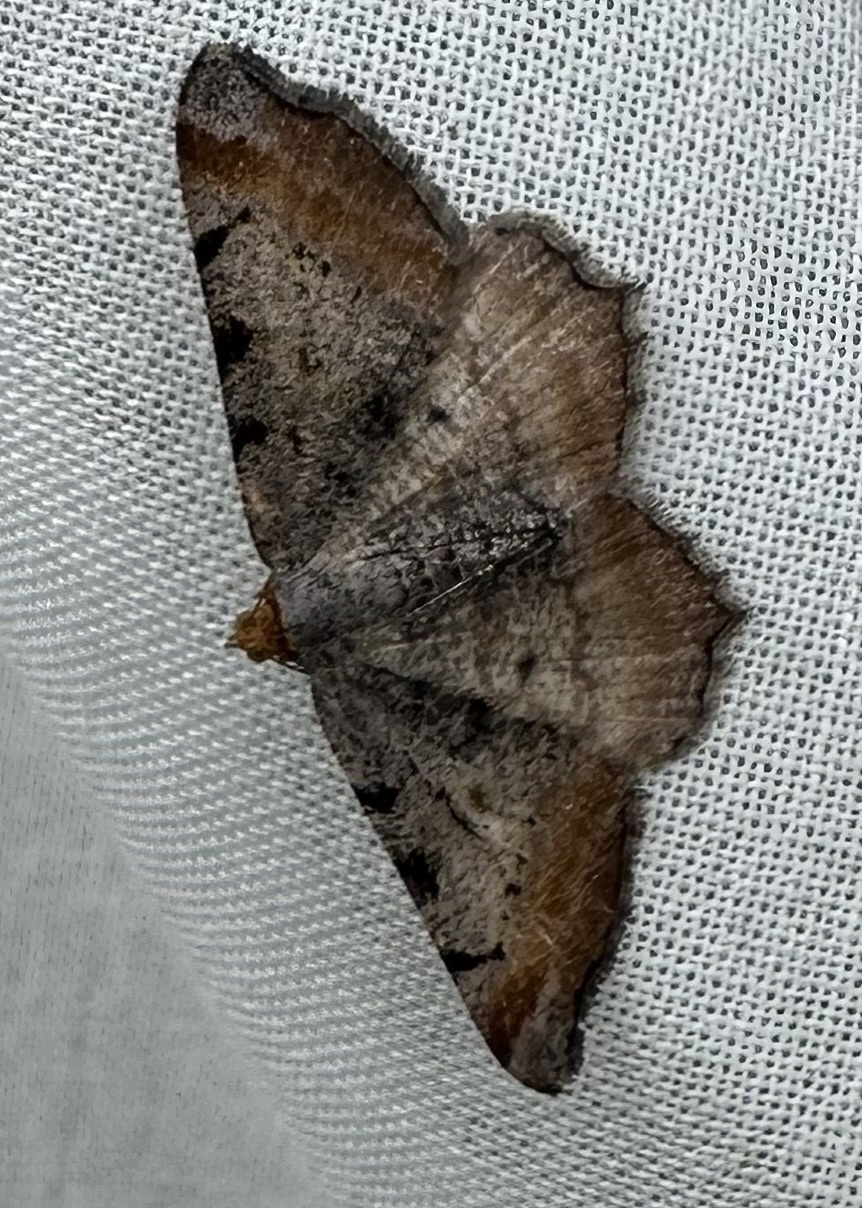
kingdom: Animalia
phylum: Arthropoda
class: Insecta
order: Lepidoptera
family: Geometridae
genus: Macaria
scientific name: Macaria adonis
